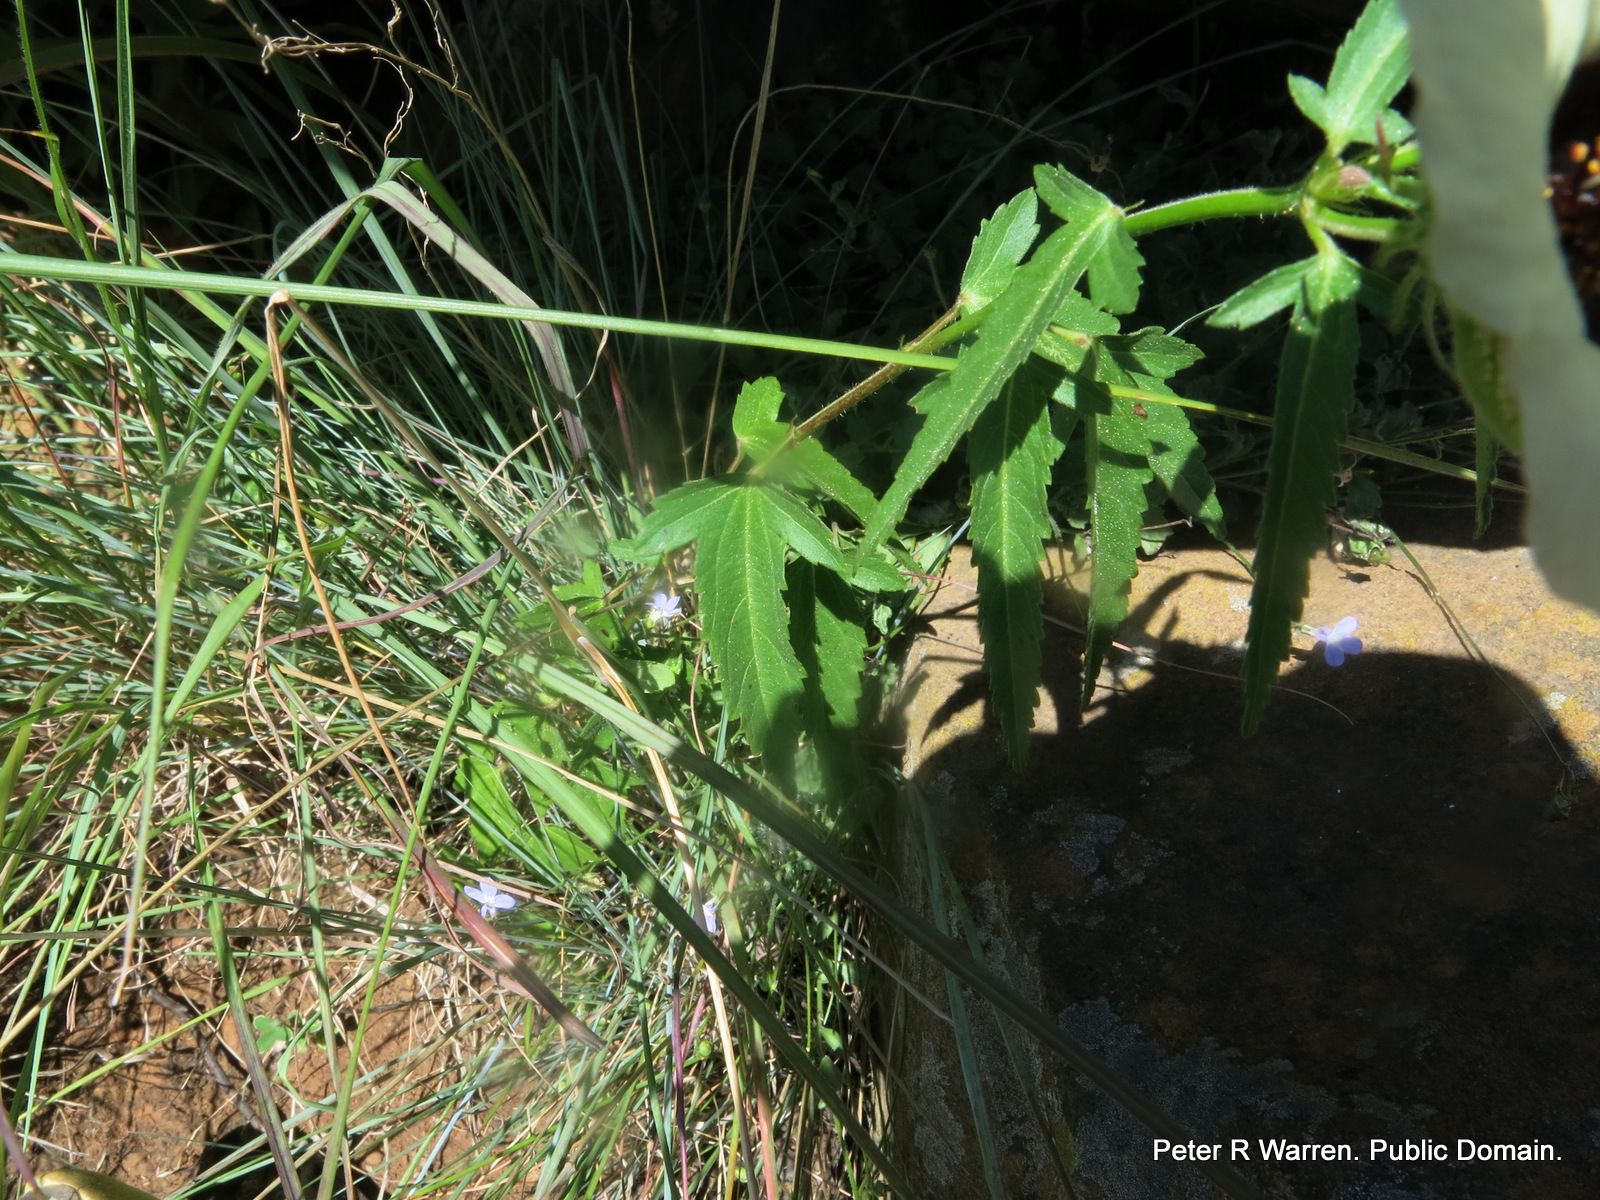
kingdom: Plantae
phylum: Tracheophyta
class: Magnoliopsida
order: Malvales
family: Malvaceae
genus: Hibiscus
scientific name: Hibiscus trionum
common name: Bladder ketmia
